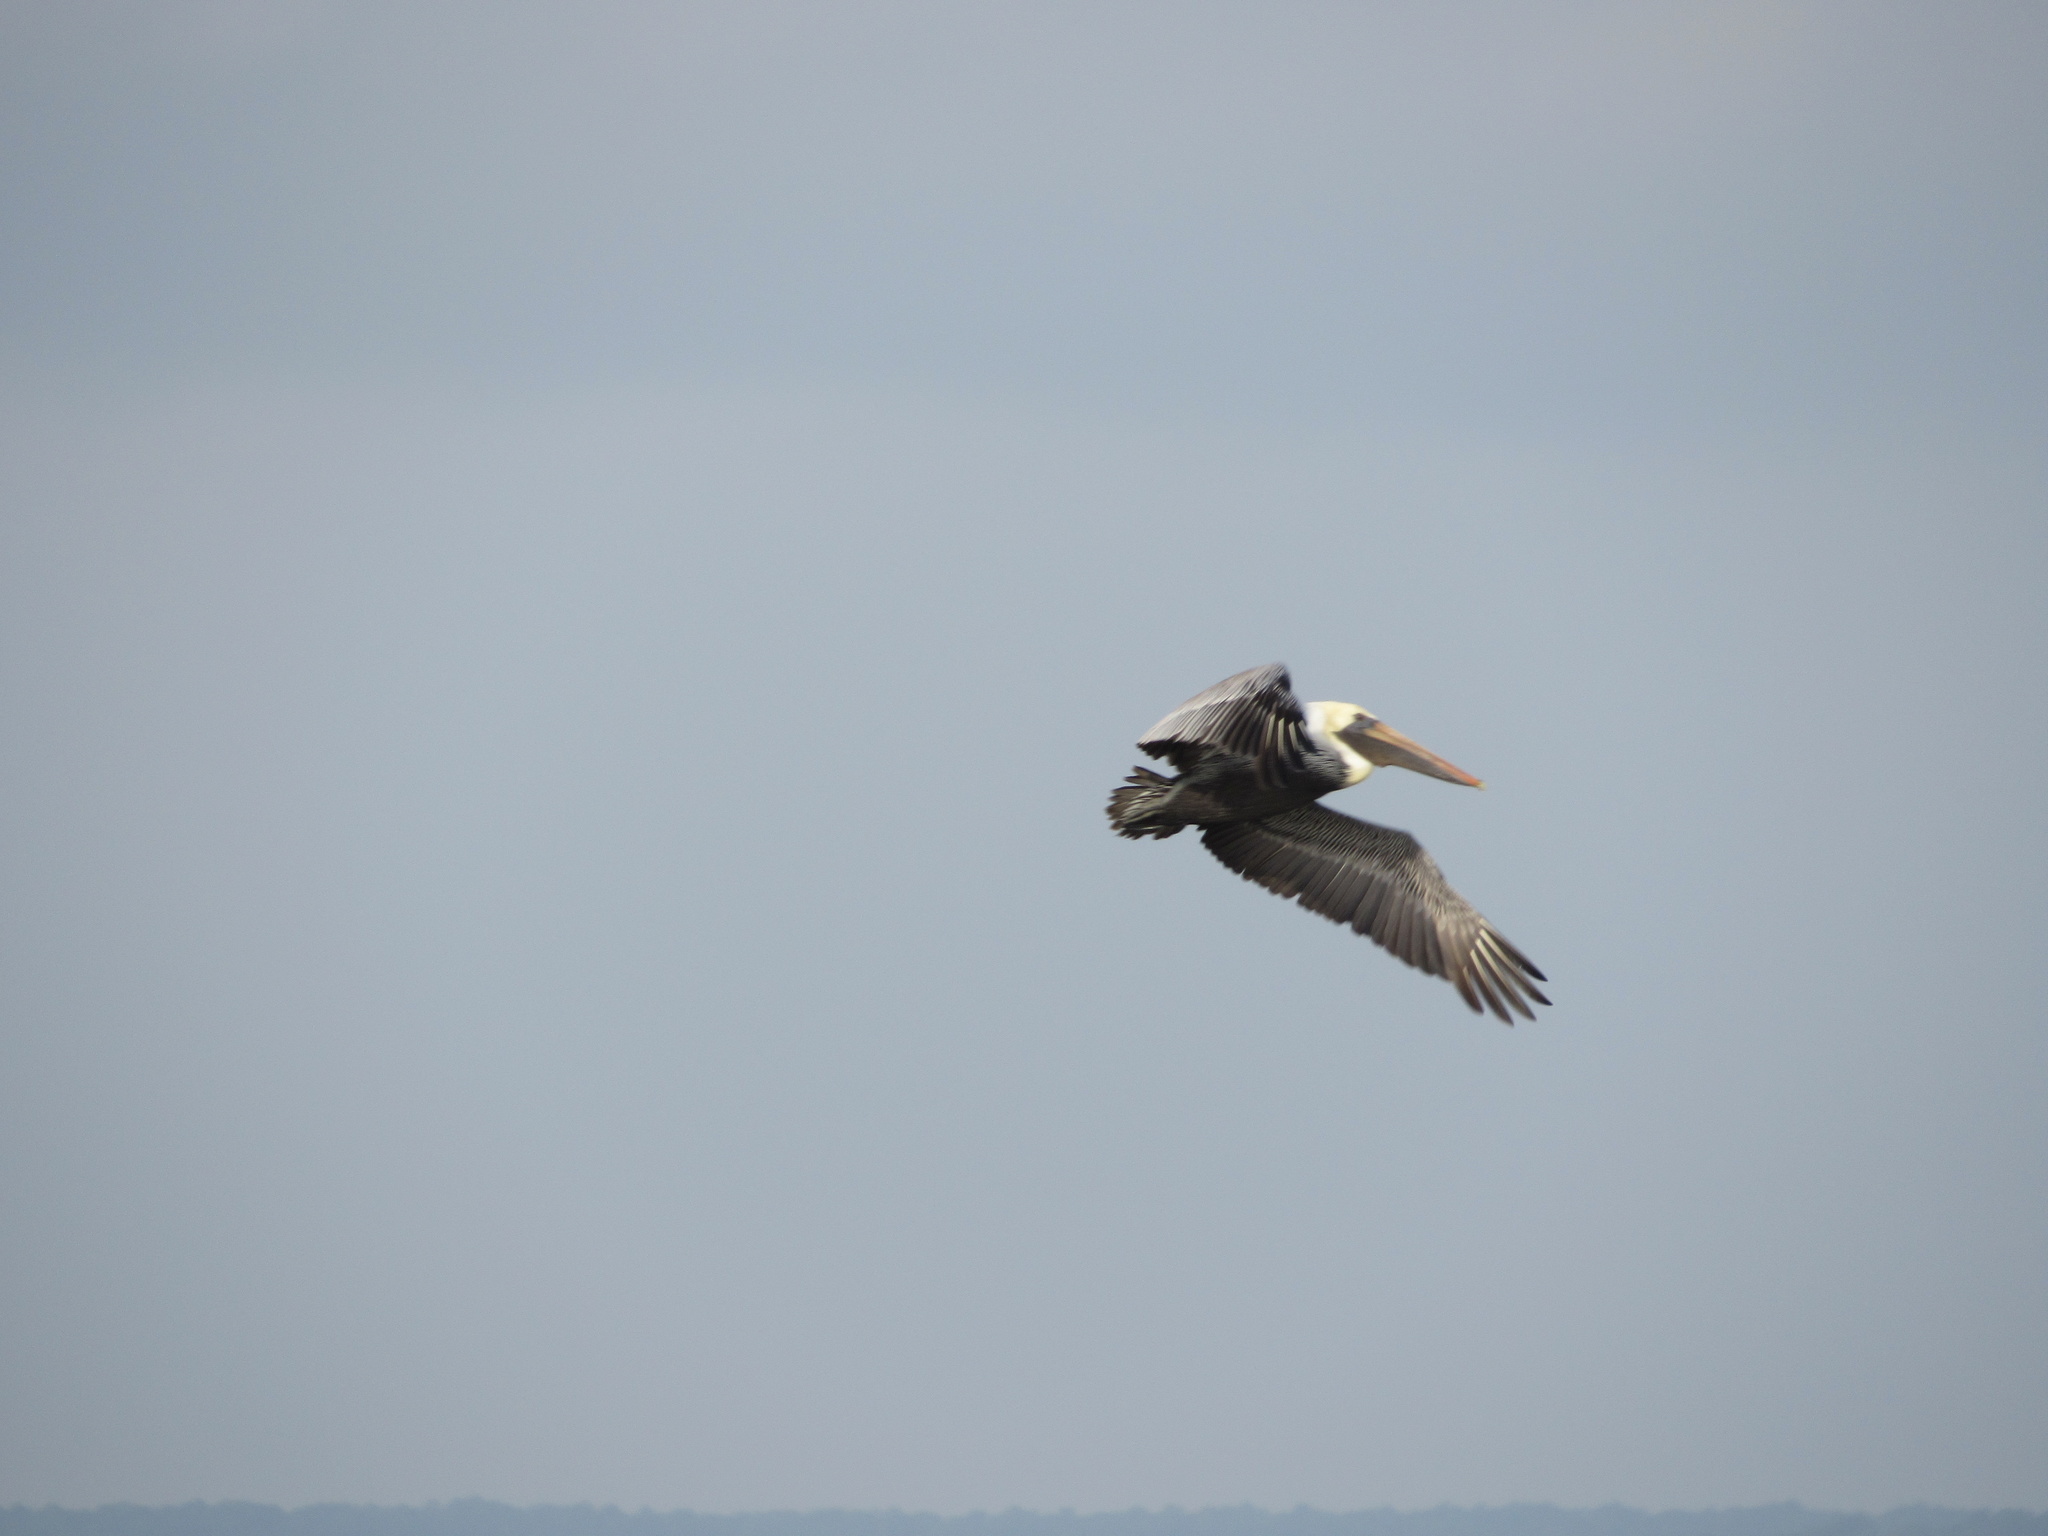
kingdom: Animalia
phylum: Chordata
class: Aves
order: Pelecaniformes
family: Pelecanidae
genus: Pelecanus
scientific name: Pelecanus occidentalis
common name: Brown pelican
